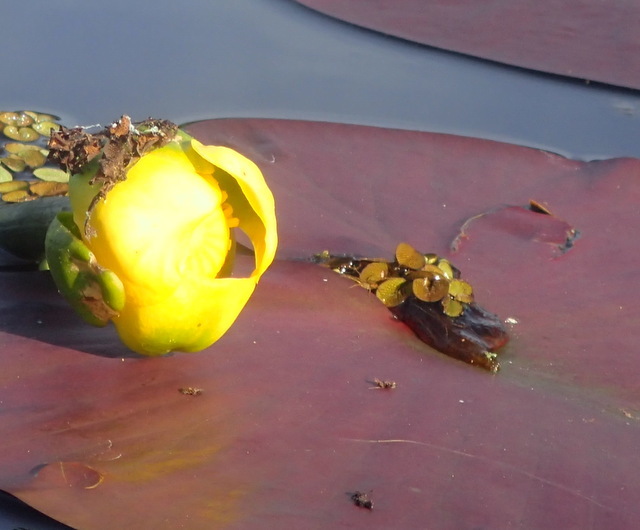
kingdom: Plantae
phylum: Tracheophyta
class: Magnoliopsida
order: Nymphaeales
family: Nymphaeaceae
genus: Nuphar
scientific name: Nuphar advena
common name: Spatter-dock
